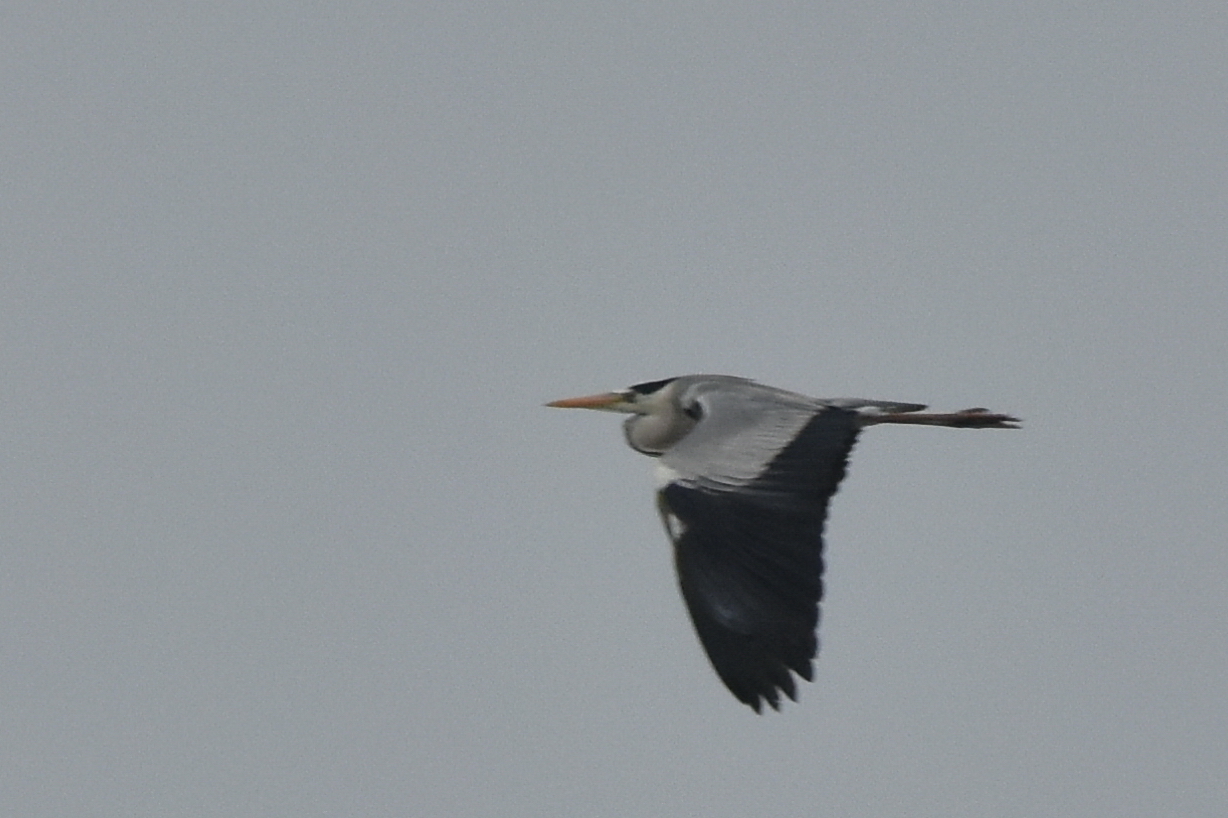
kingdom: Animalia
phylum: Chordata
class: Aves
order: Pelecaniformes
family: Ardeidae
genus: Ardea
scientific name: Ardea cinerea
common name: Grey heron
